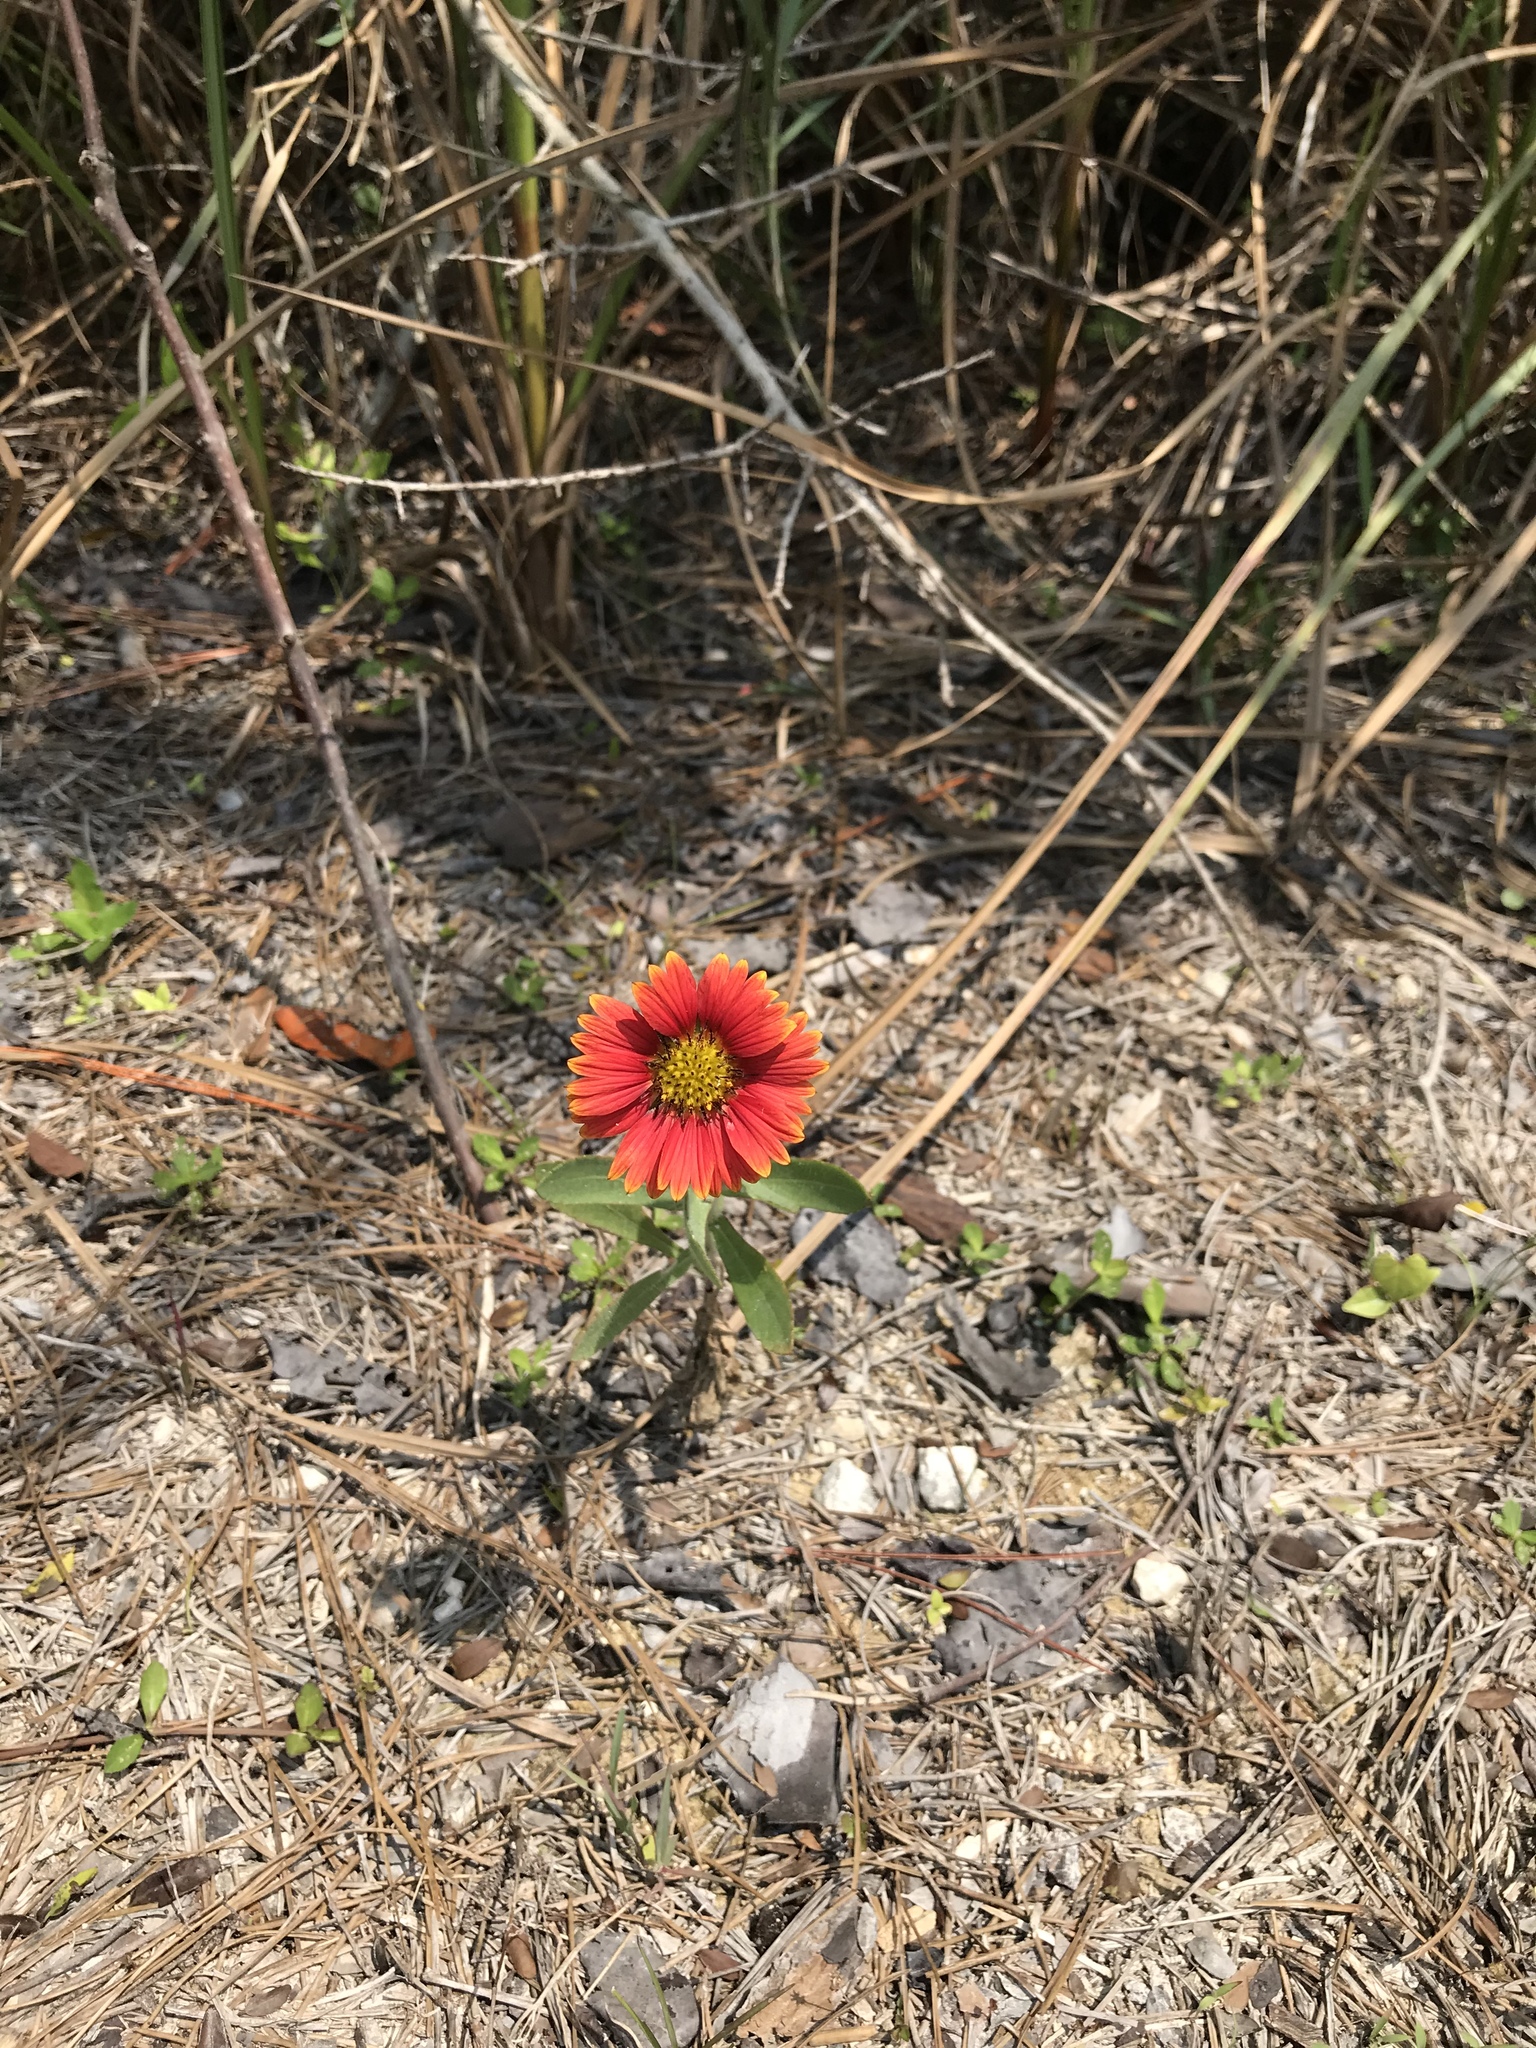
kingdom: Plantae
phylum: Tracheophyta
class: Magnoliopsida
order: Asterales
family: Asteraceae
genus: Gaillardia
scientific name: Gaillardia pulchella
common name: Firewheel
